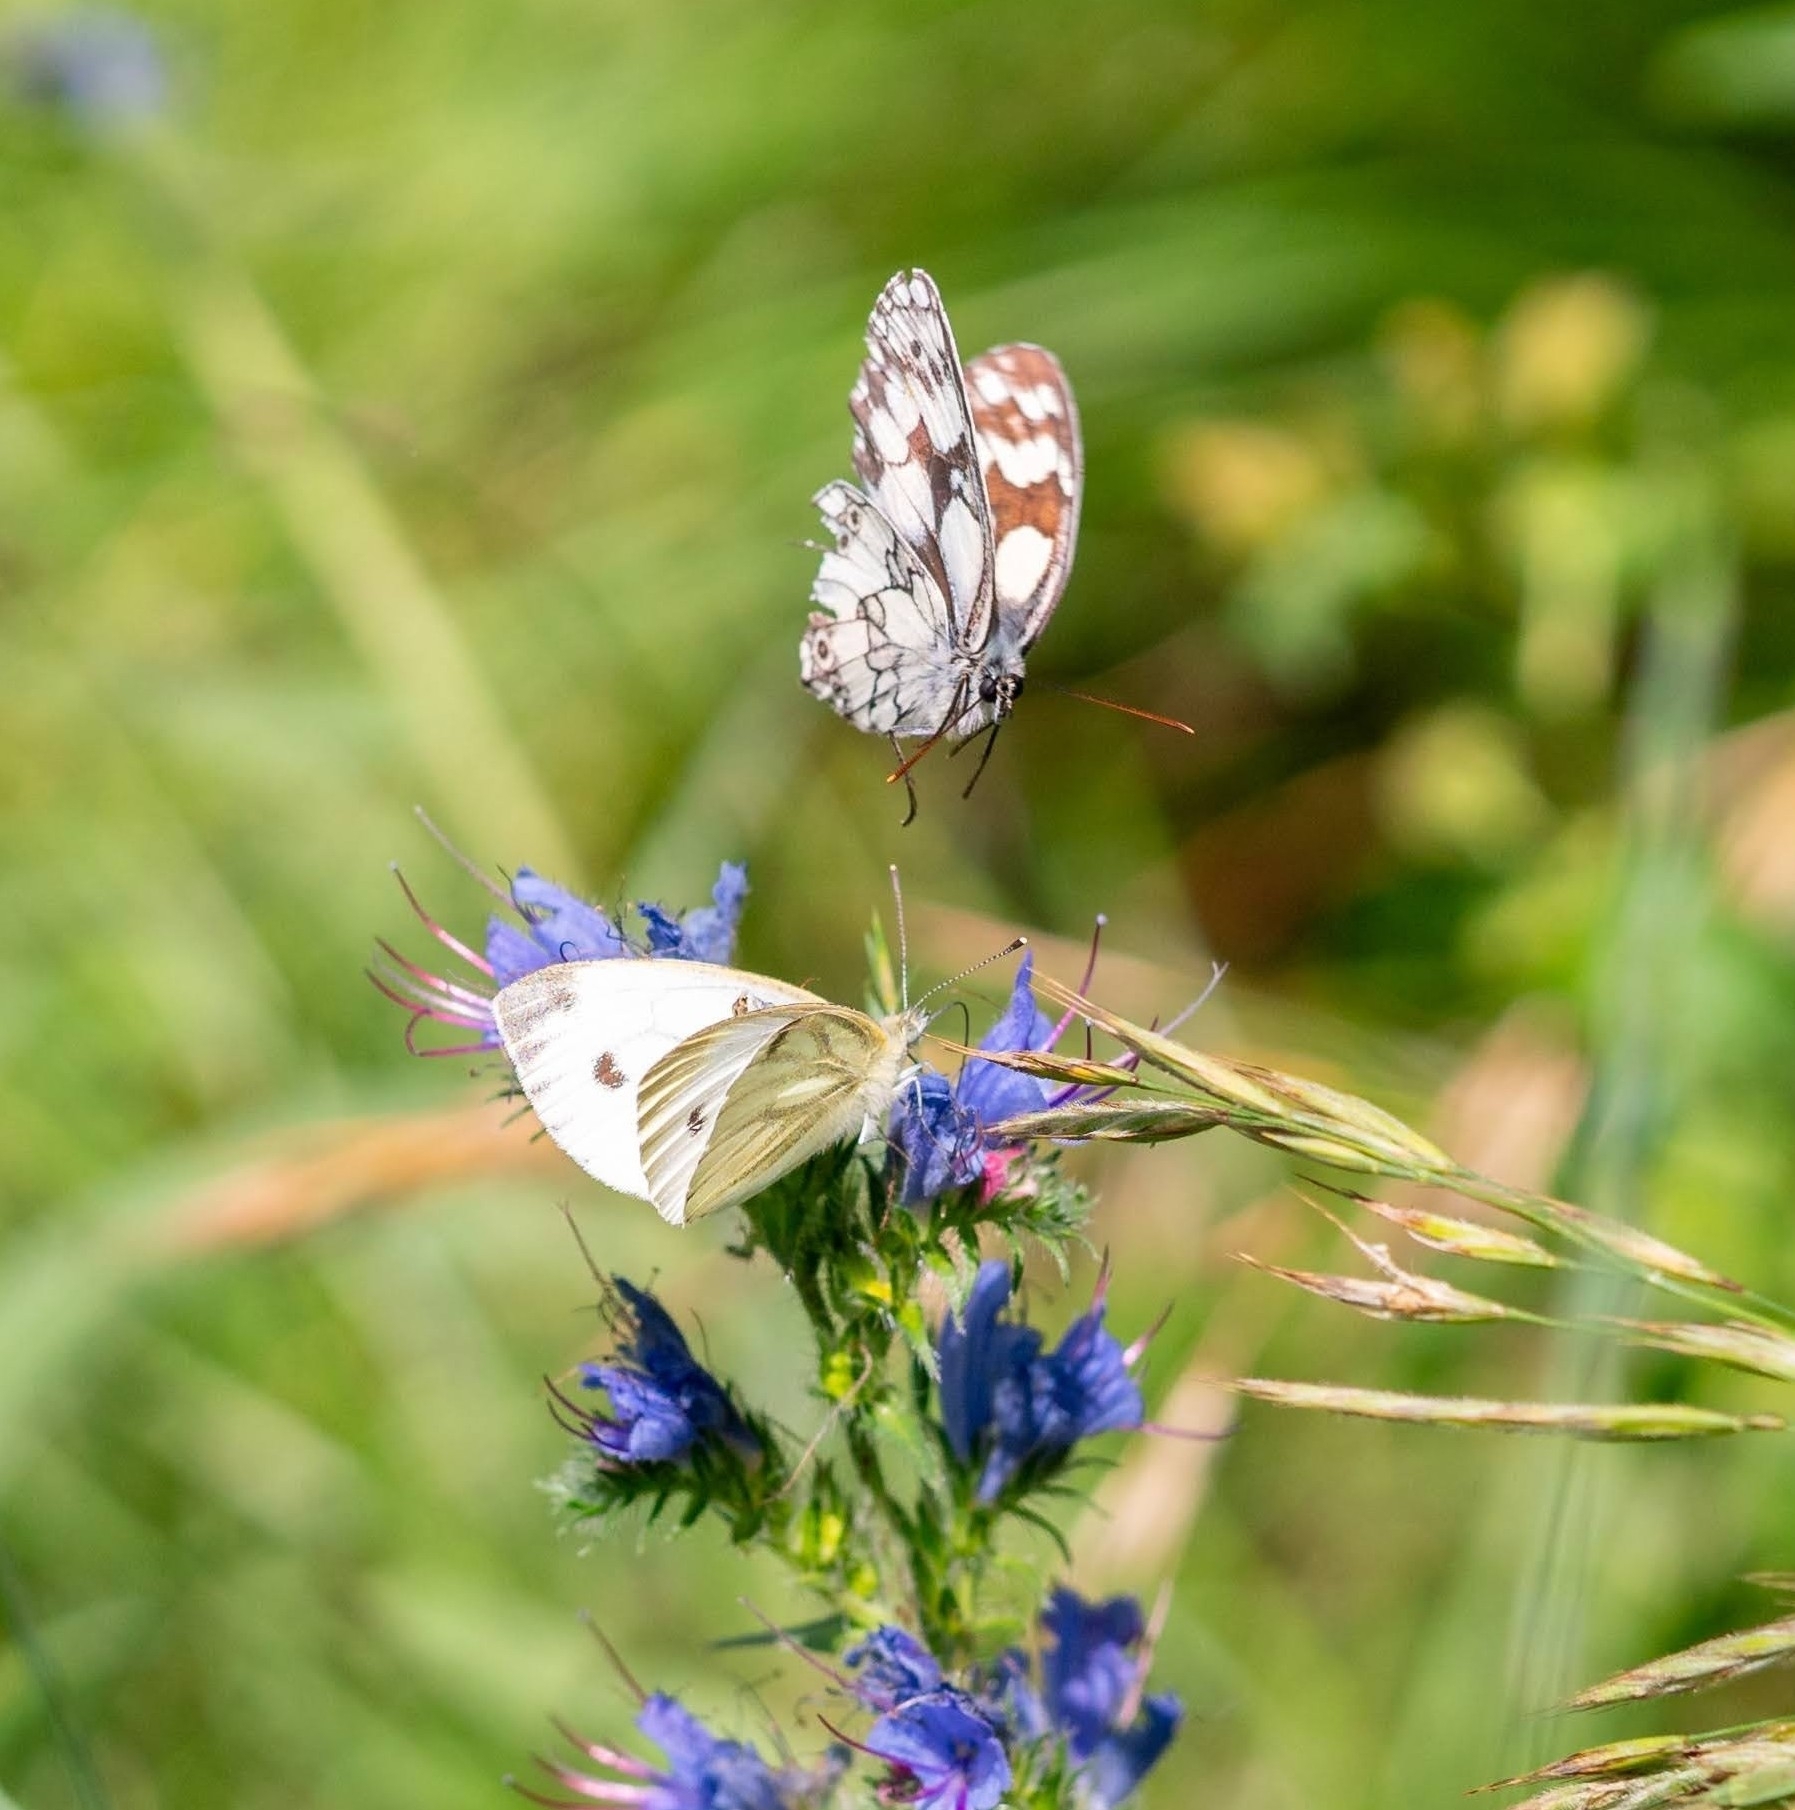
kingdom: Animalia
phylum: Arthropoda
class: Insecta
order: Lepidoptera
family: Nymphalidae
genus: Melanargia
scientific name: Melanargia galathea
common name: Marbled white
